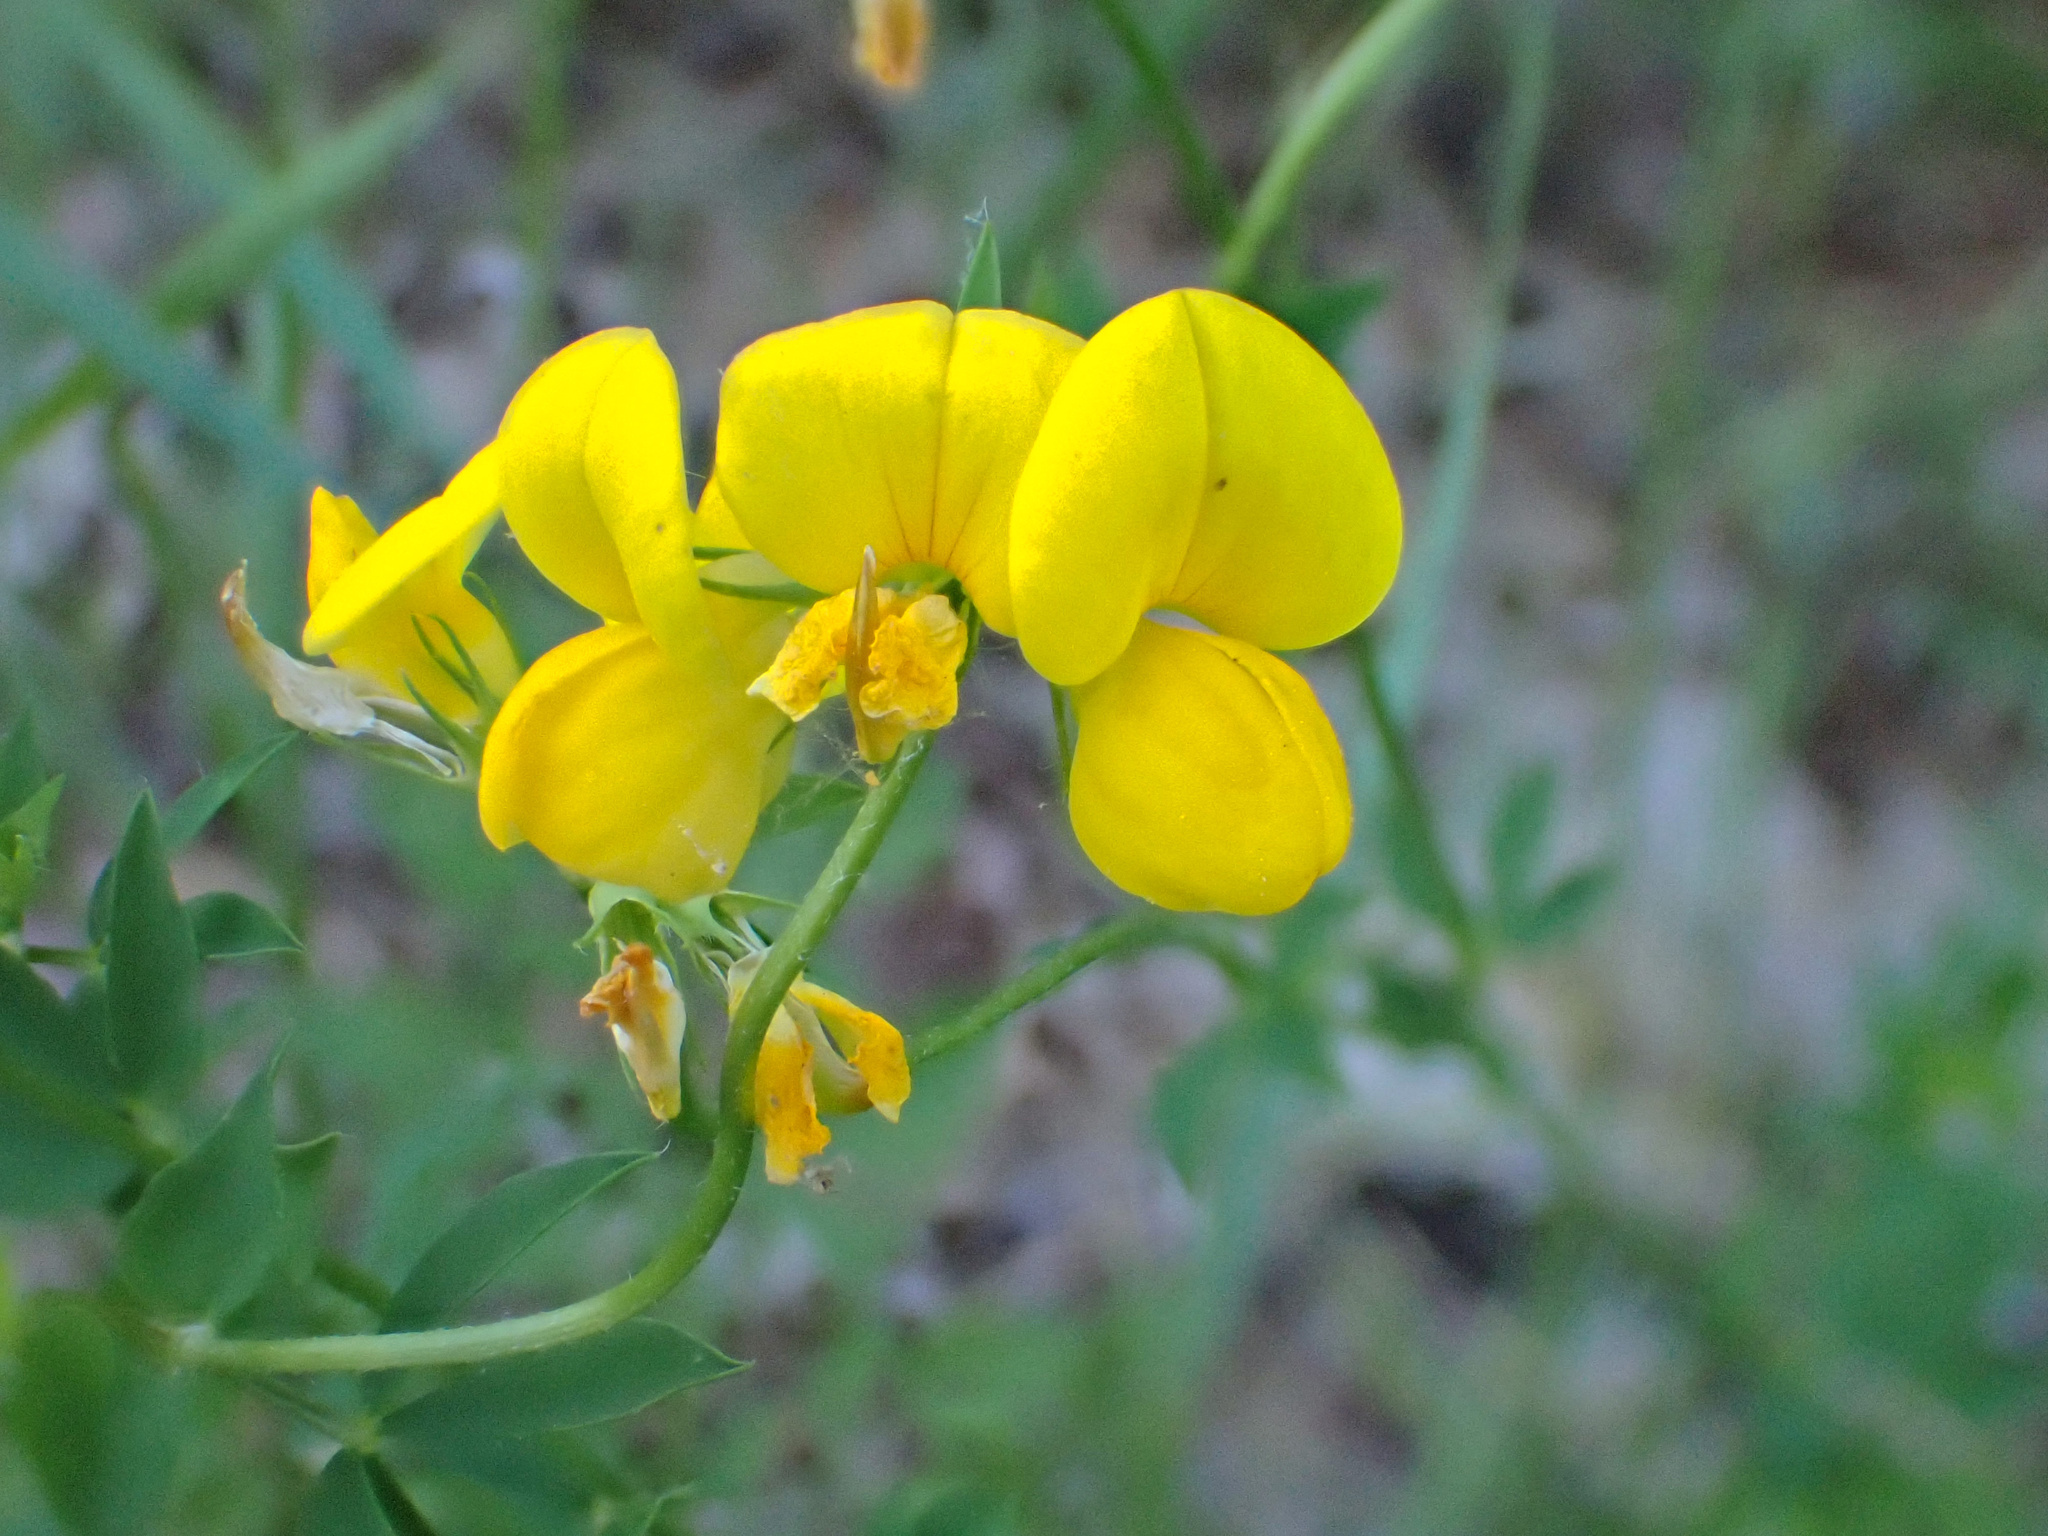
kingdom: Plantae
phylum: Tracheophyta
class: Magnoliopsida
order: Fabales
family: Fabaceae
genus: Lotus
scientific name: Lotus corniculatus
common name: Common bird's-foot-trefoil
